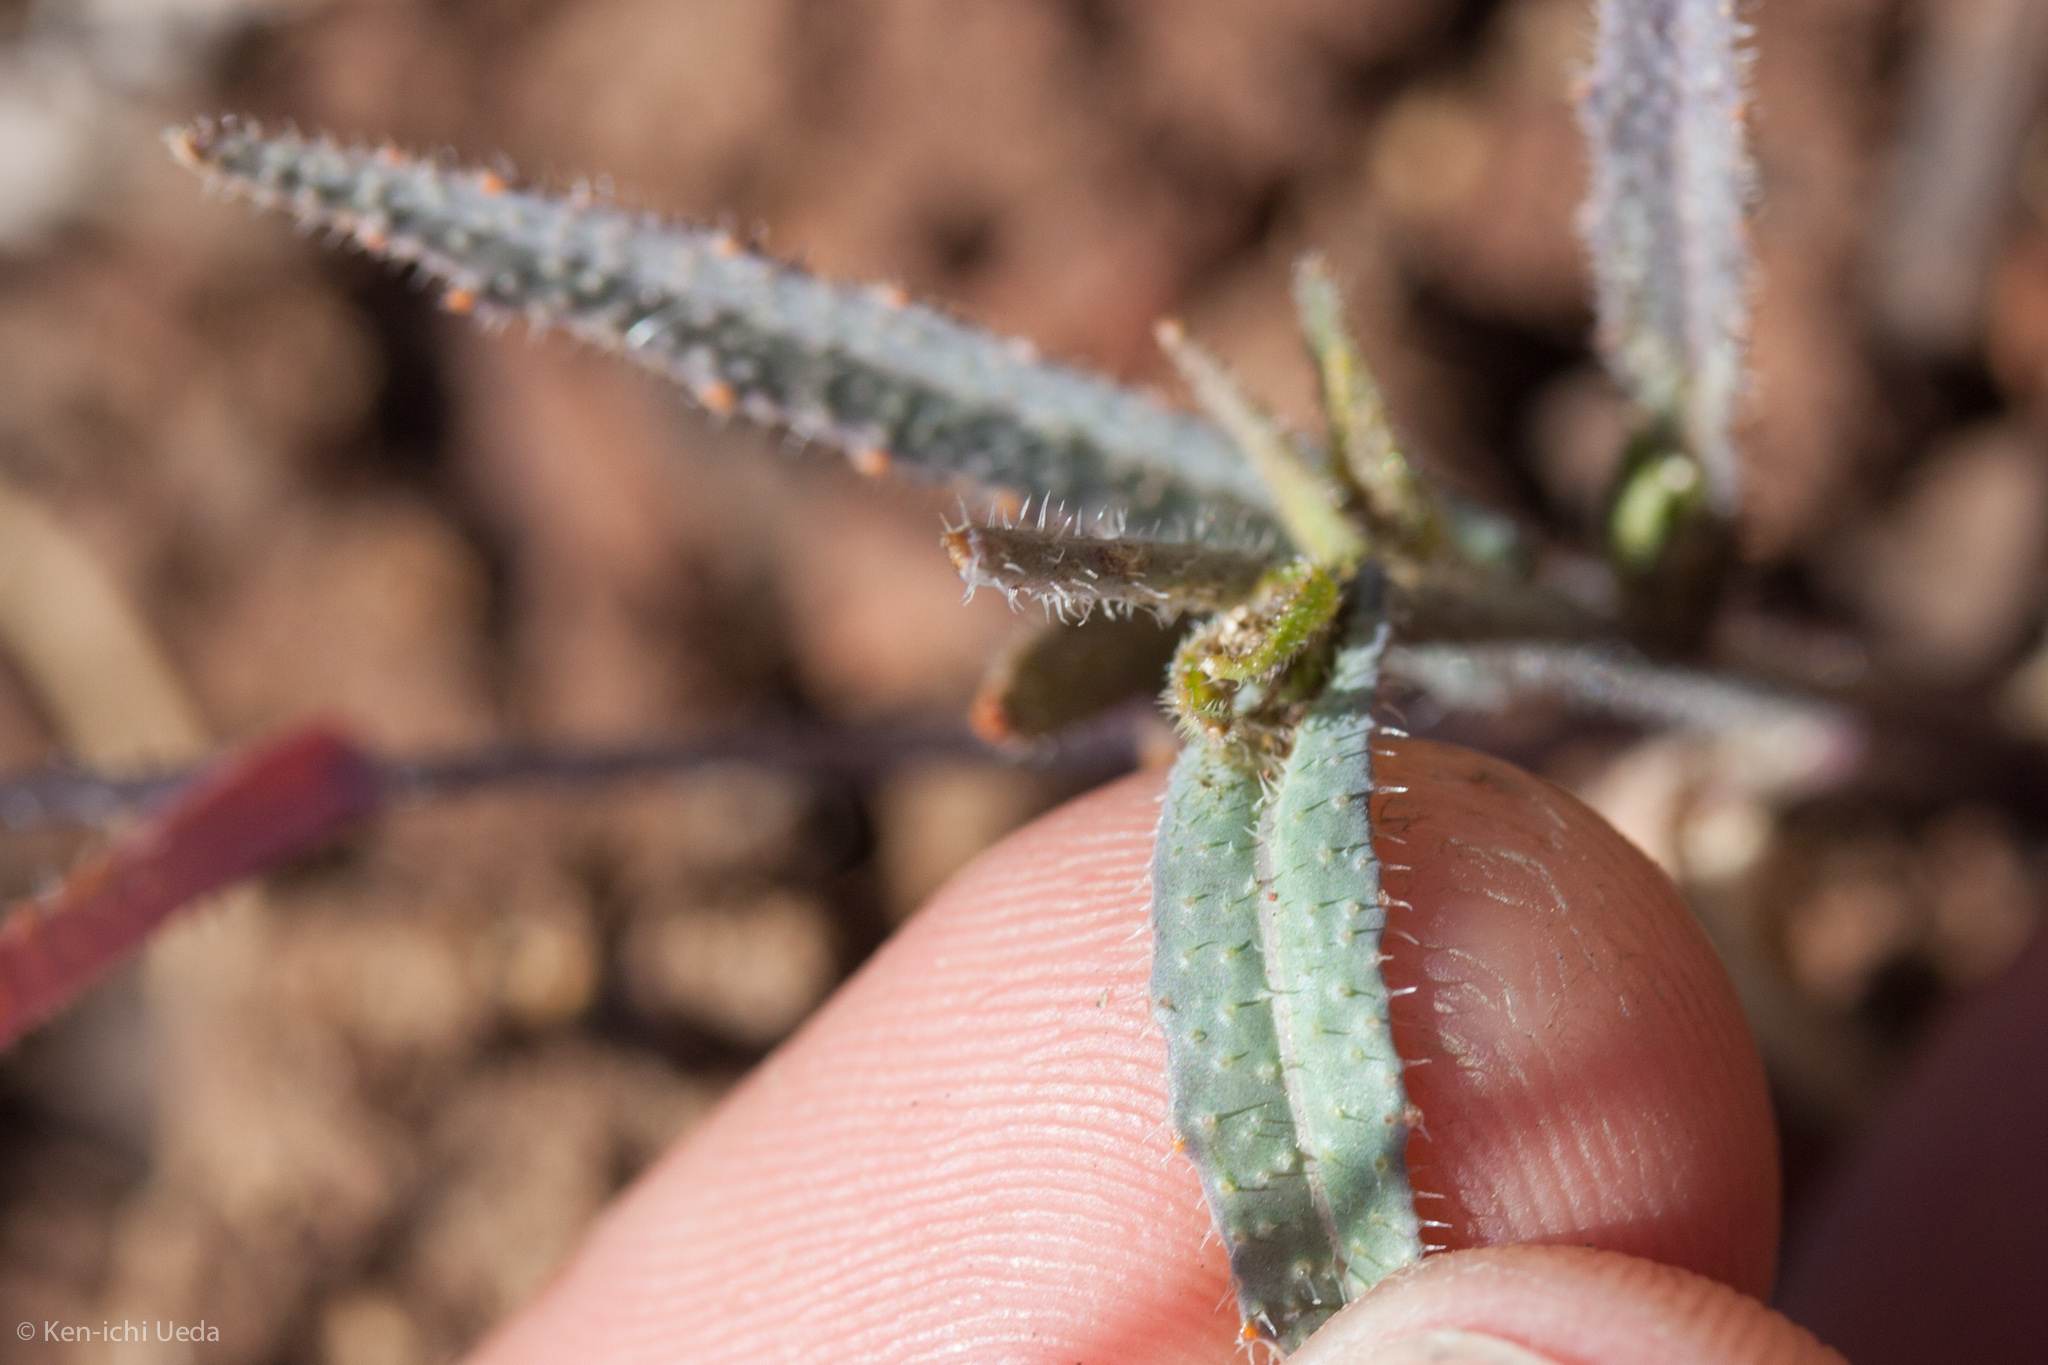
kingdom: Plantae
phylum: Tracheophyta
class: Magnoliopsida
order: Brassicales
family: Brassicaceae
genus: Streptanthus
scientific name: Streptanthus glandulosus
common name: Jewel-flower
